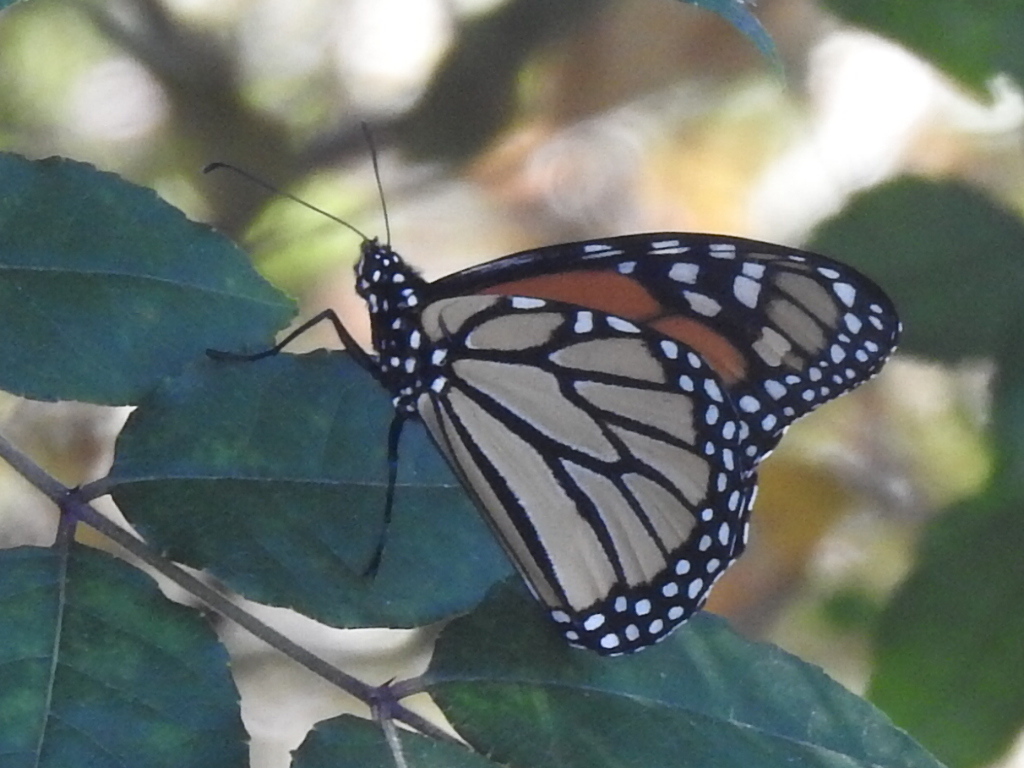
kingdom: Animalia
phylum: Arthropoda
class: Insecta
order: Lepidoptera
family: Nymphalidae
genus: Danaus
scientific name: Danaus plexippus
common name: Monarch
